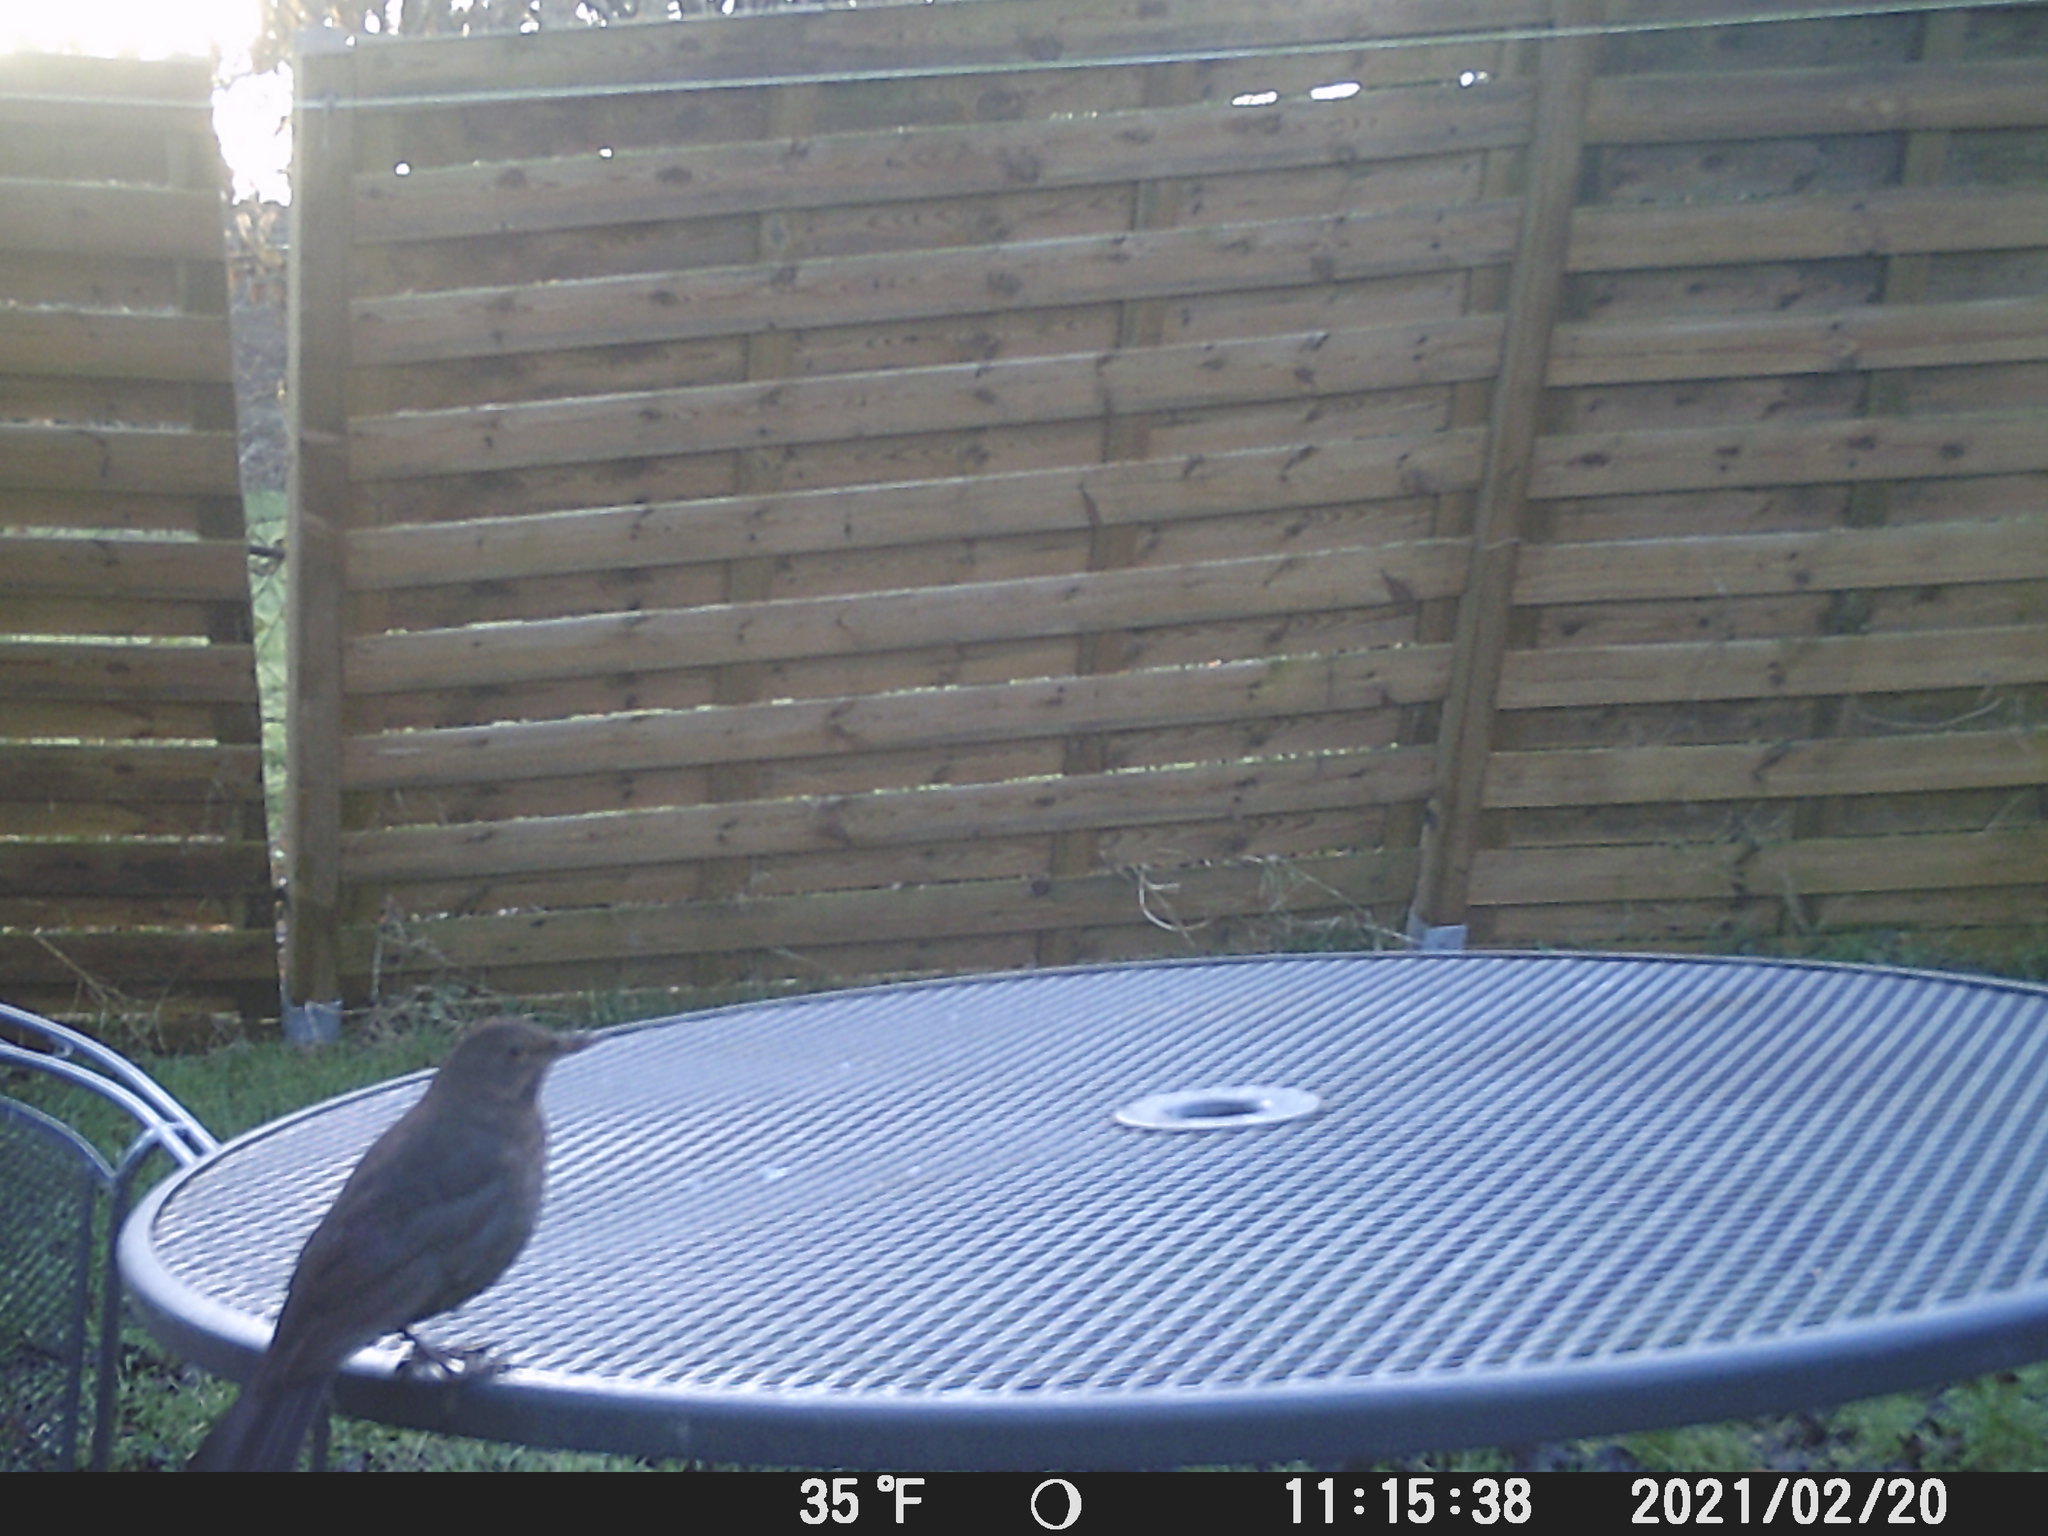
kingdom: Animalia
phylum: Chordata
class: Aves
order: Passeriformes
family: Turdidae
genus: Turdus
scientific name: Turdus merula
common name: Common blackbird
